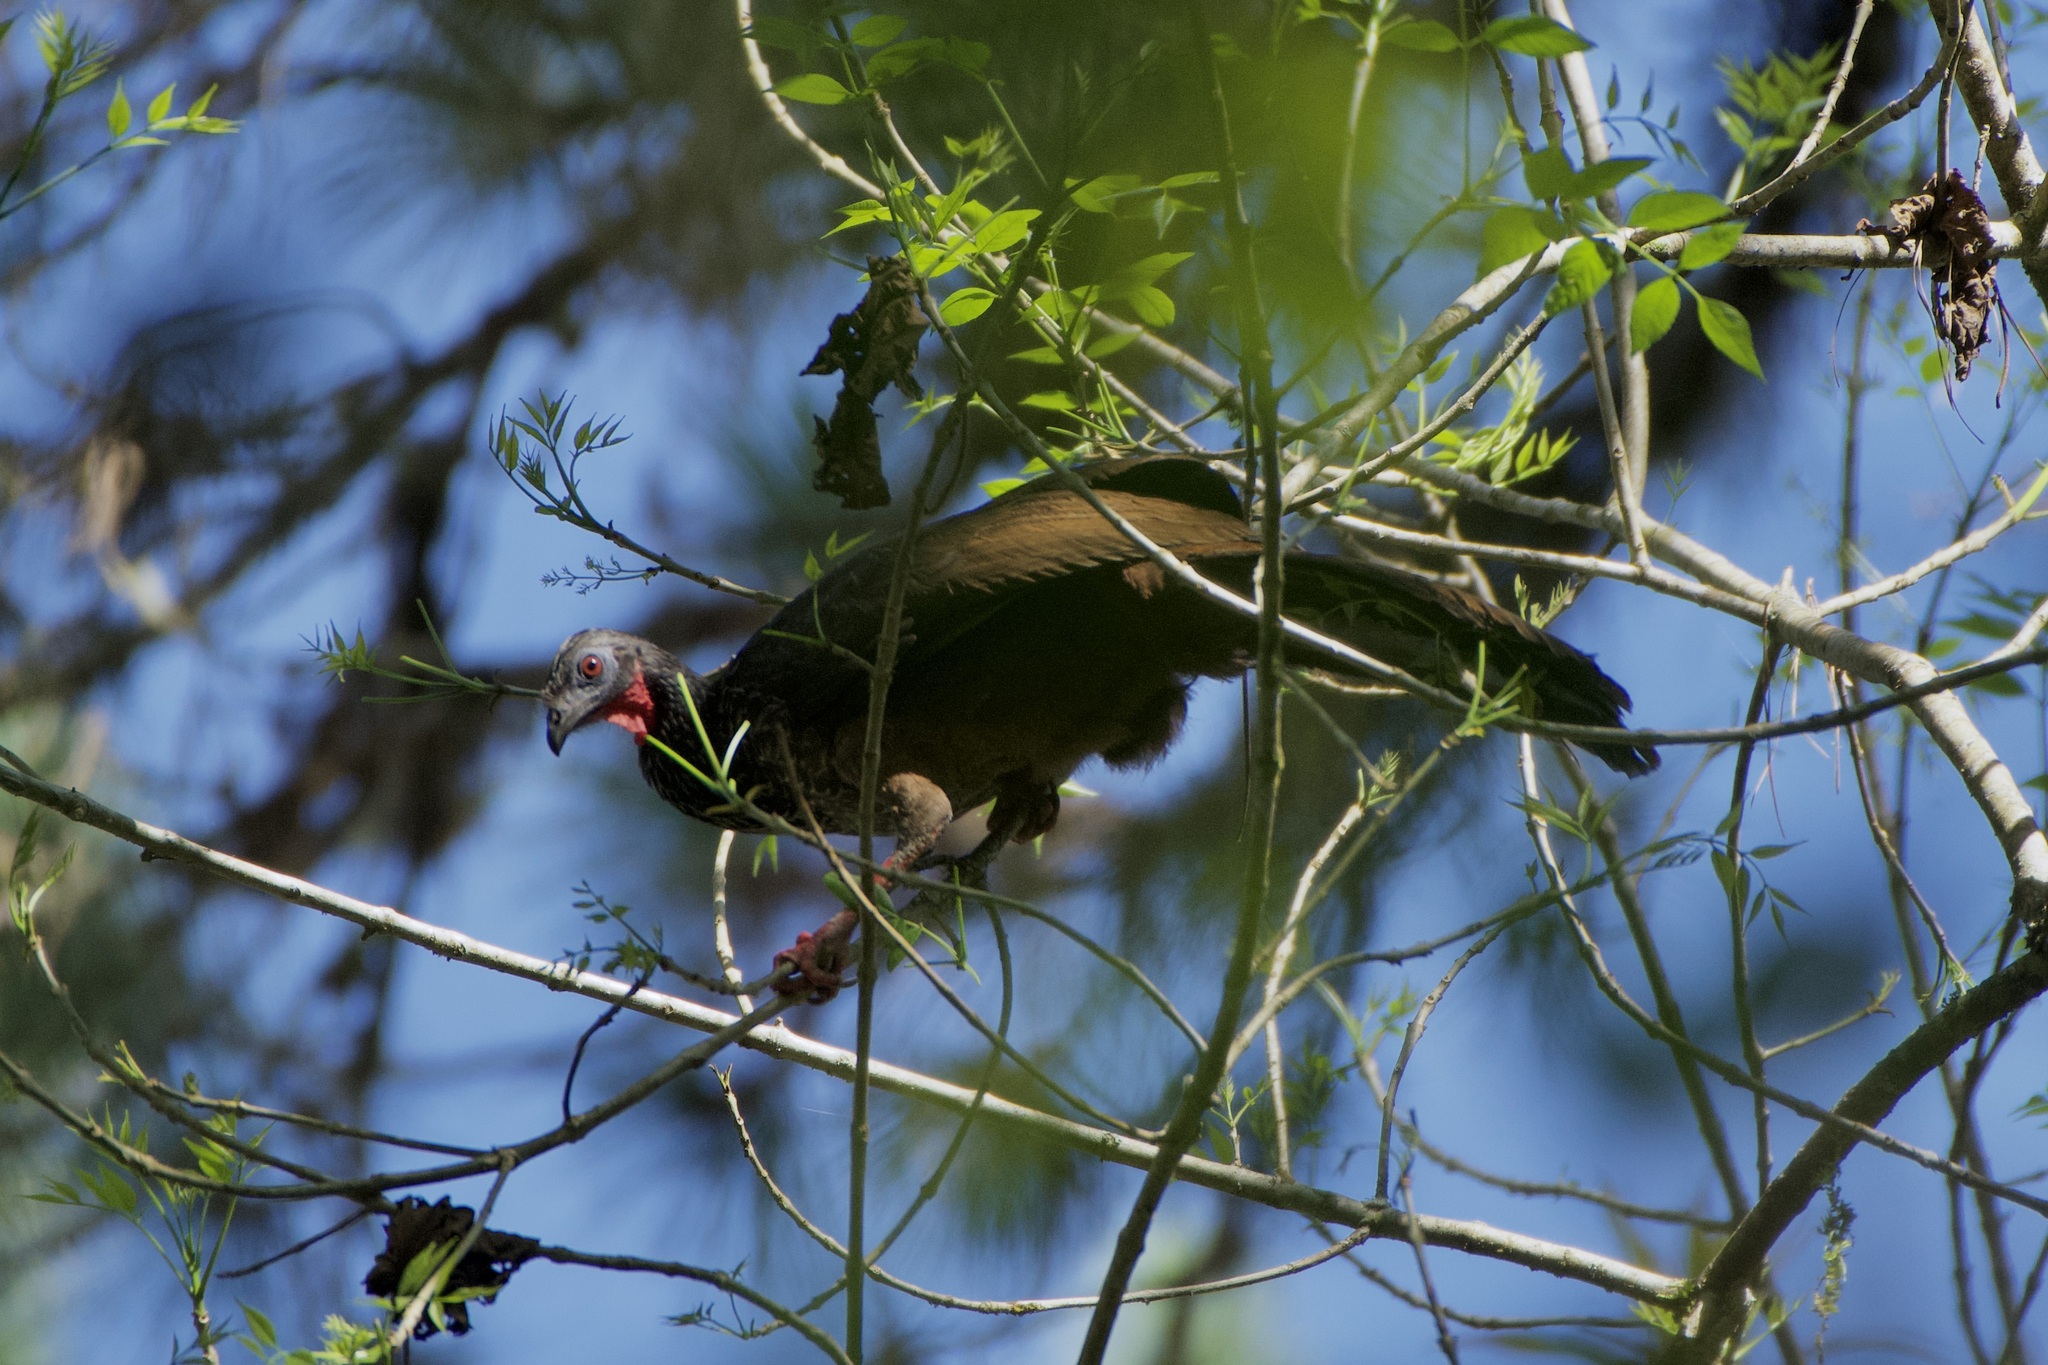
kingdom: Animalia
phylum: Chordata
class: Aves
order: Galliformes
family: Cracidae
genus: Penelope
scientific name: Penelope perspicax
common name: Cauca guan
